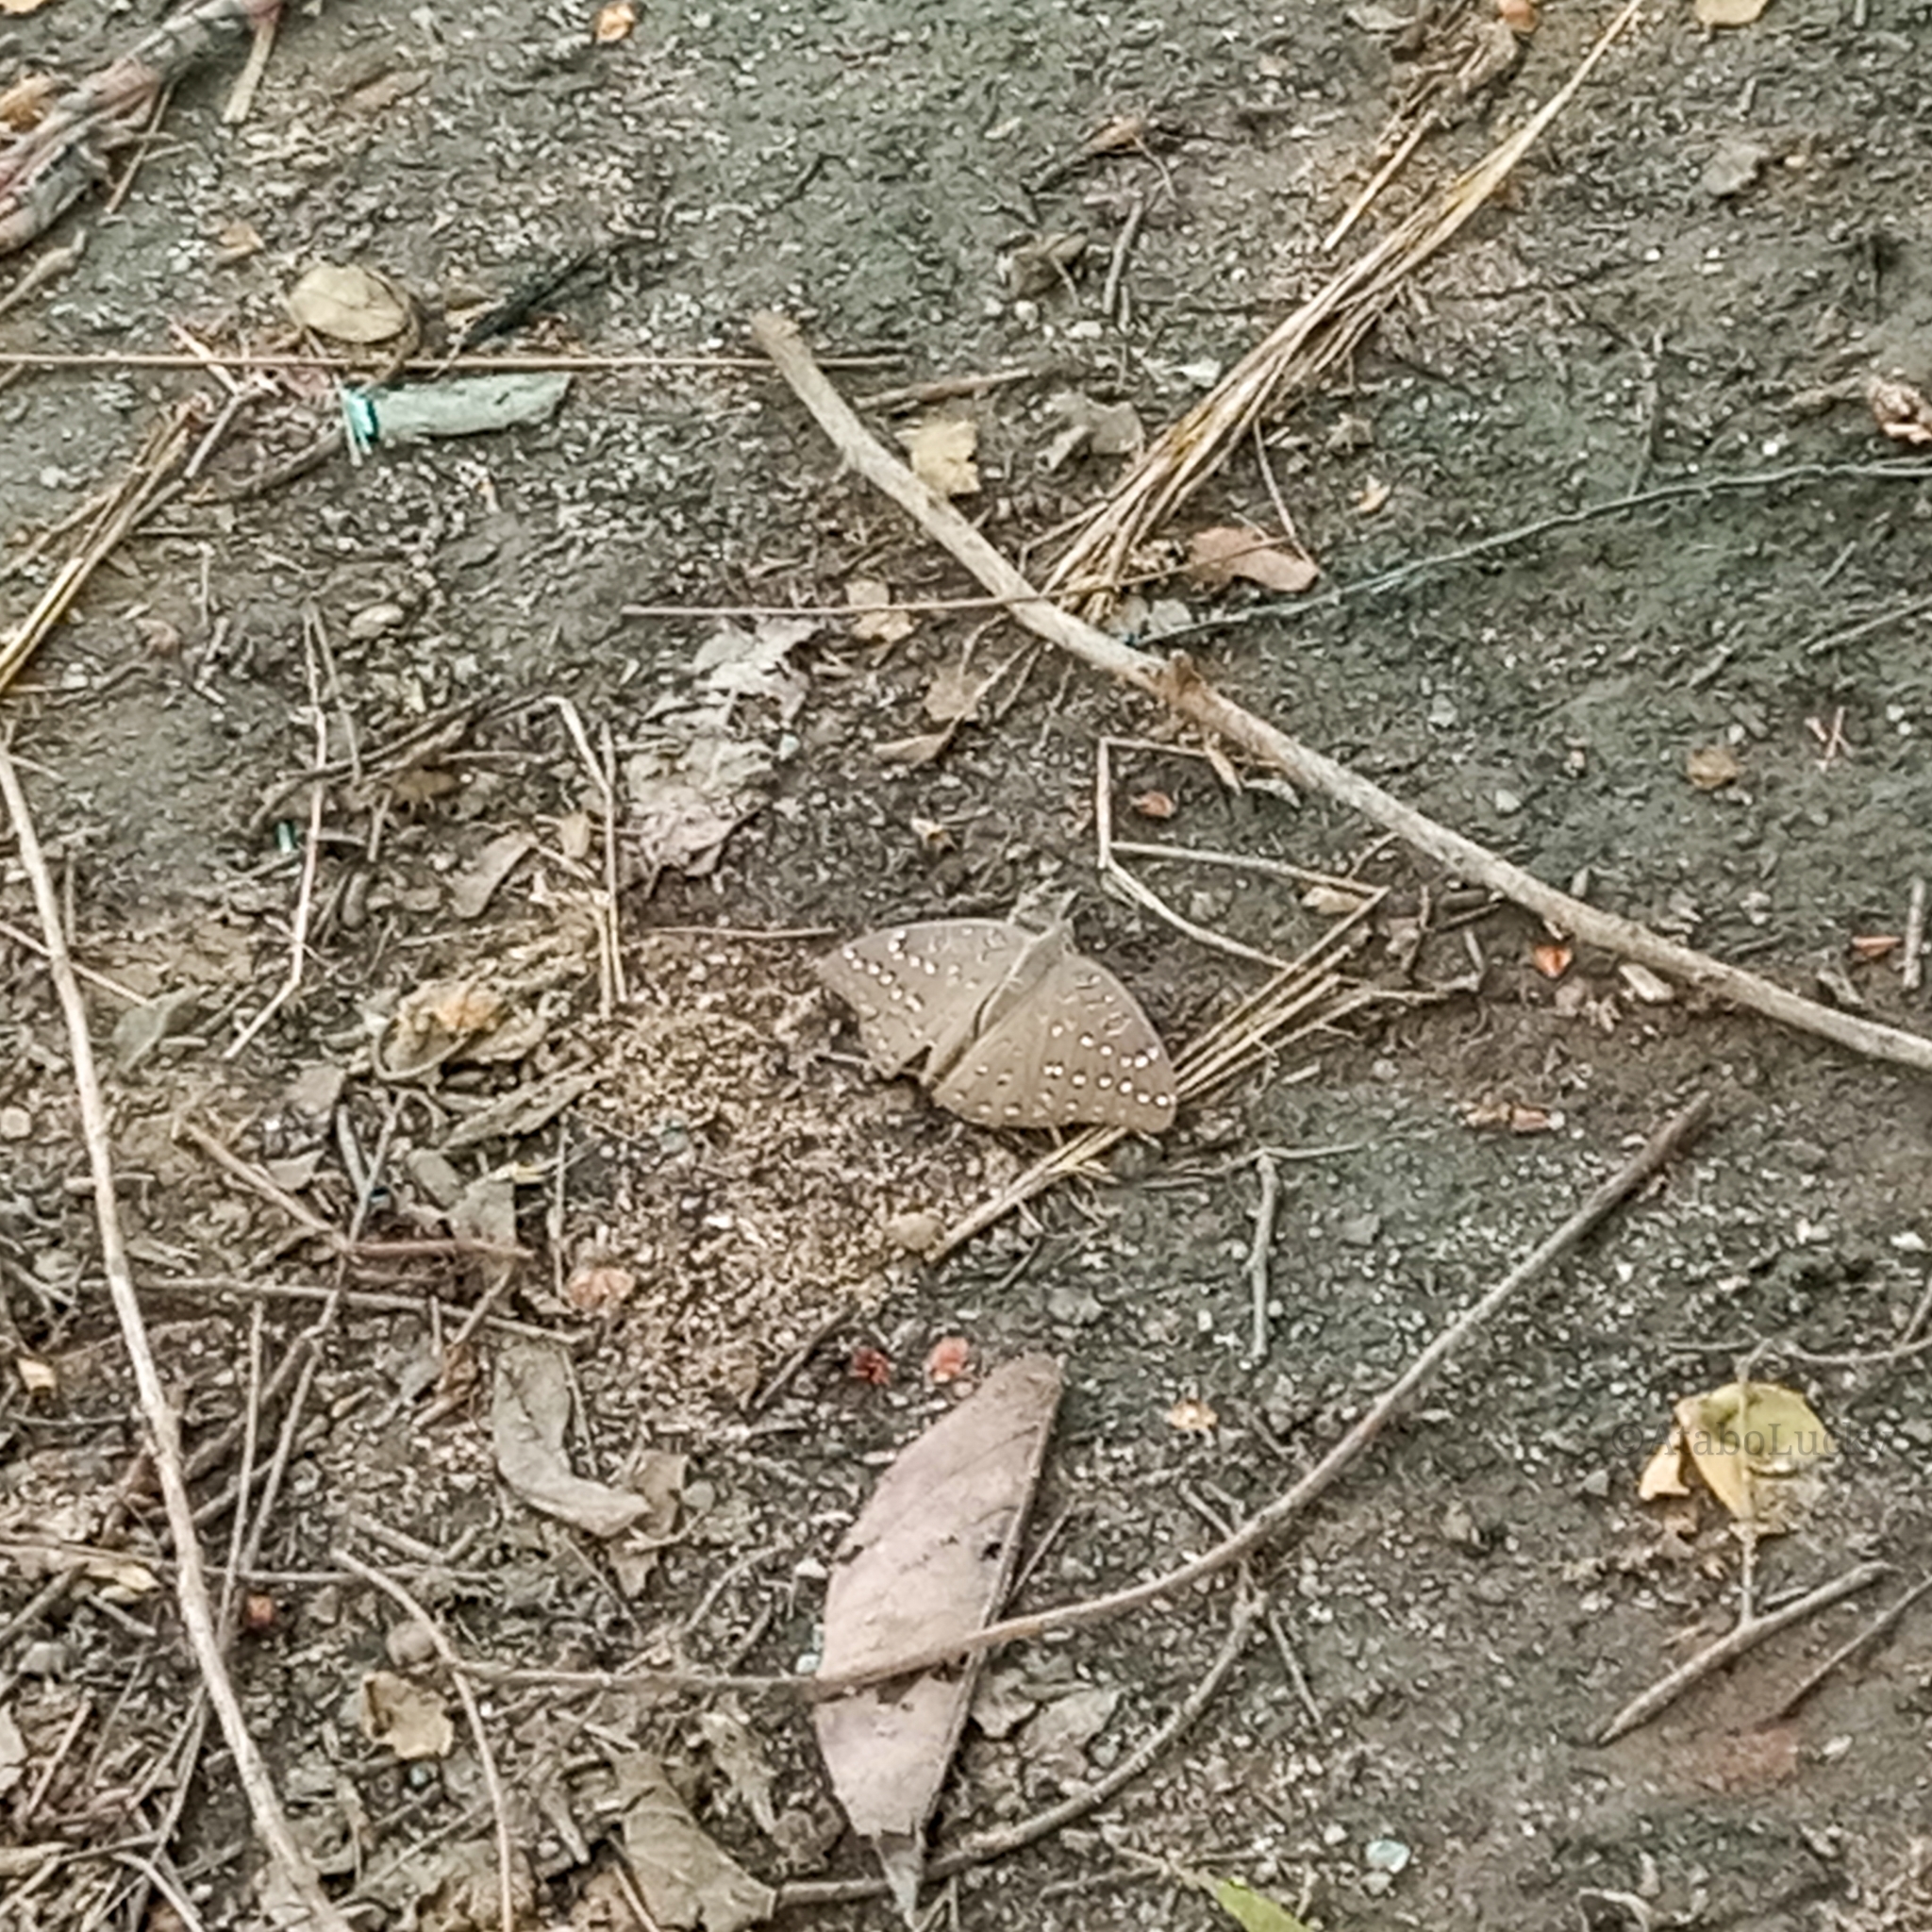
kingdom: Animalia
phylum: Arthropoda
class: Insecta
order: Lepidoptera
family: Nymphalidae
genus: Hamanumida
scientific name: Hamanumida daedalus
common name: Guinea-fowl butterfly
